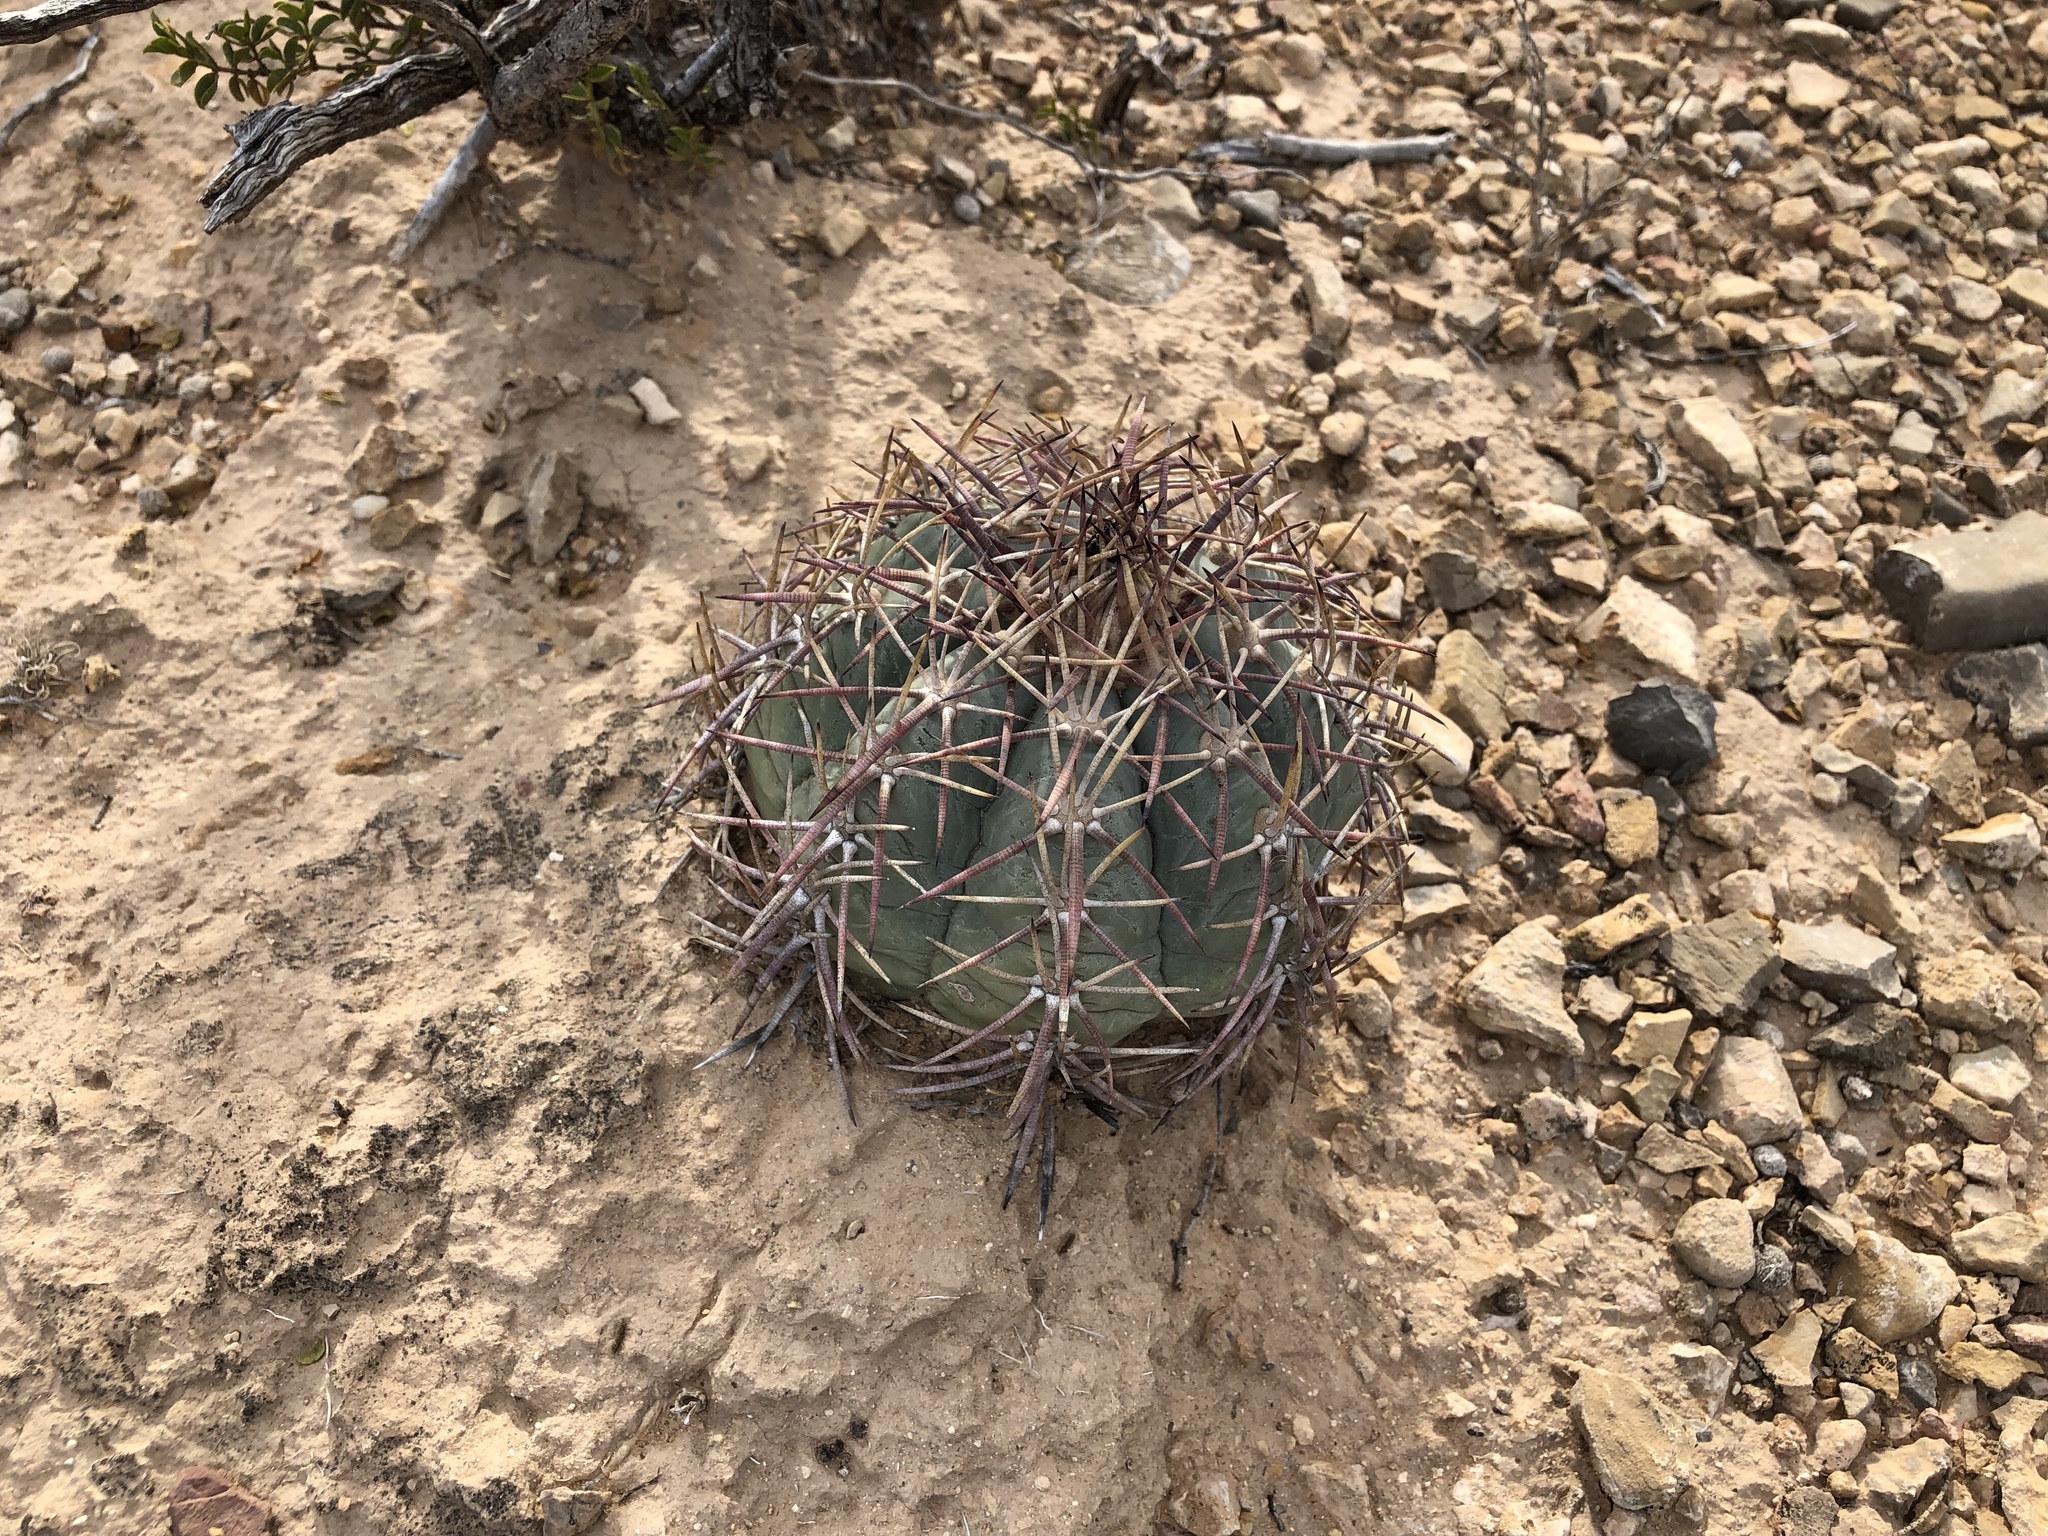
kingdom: Plantae
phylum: Tracheophyta
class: Magnoliopsida
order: Caryophyllales
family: Cactaceae
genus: Echinocactus
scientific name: Echinocactus horizonthalonius
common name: Devilshead
